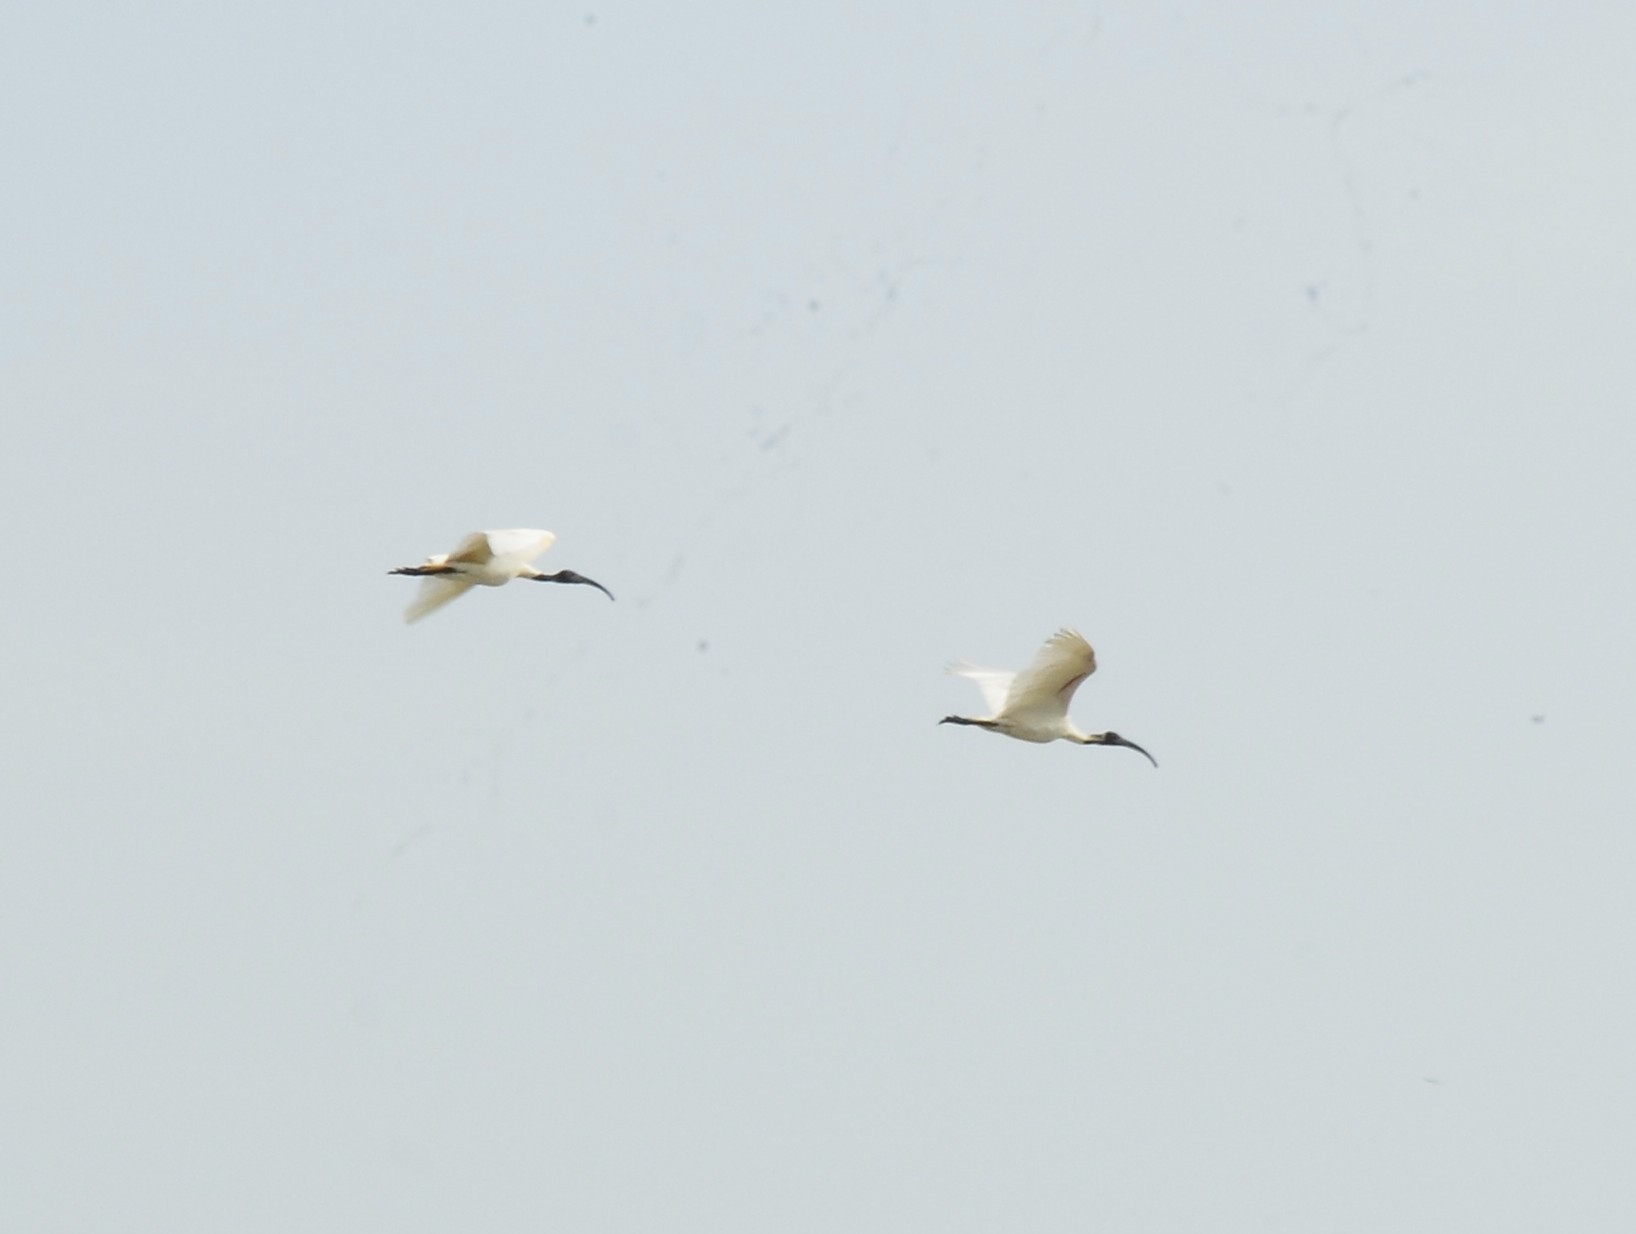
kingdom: Animalia
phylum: Chordata
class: Aves
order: Pelecaniformes
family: Threskiornithidae
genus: Threskiornis
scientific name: Threskiornis melanocephalus
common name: Black-headed ibis
